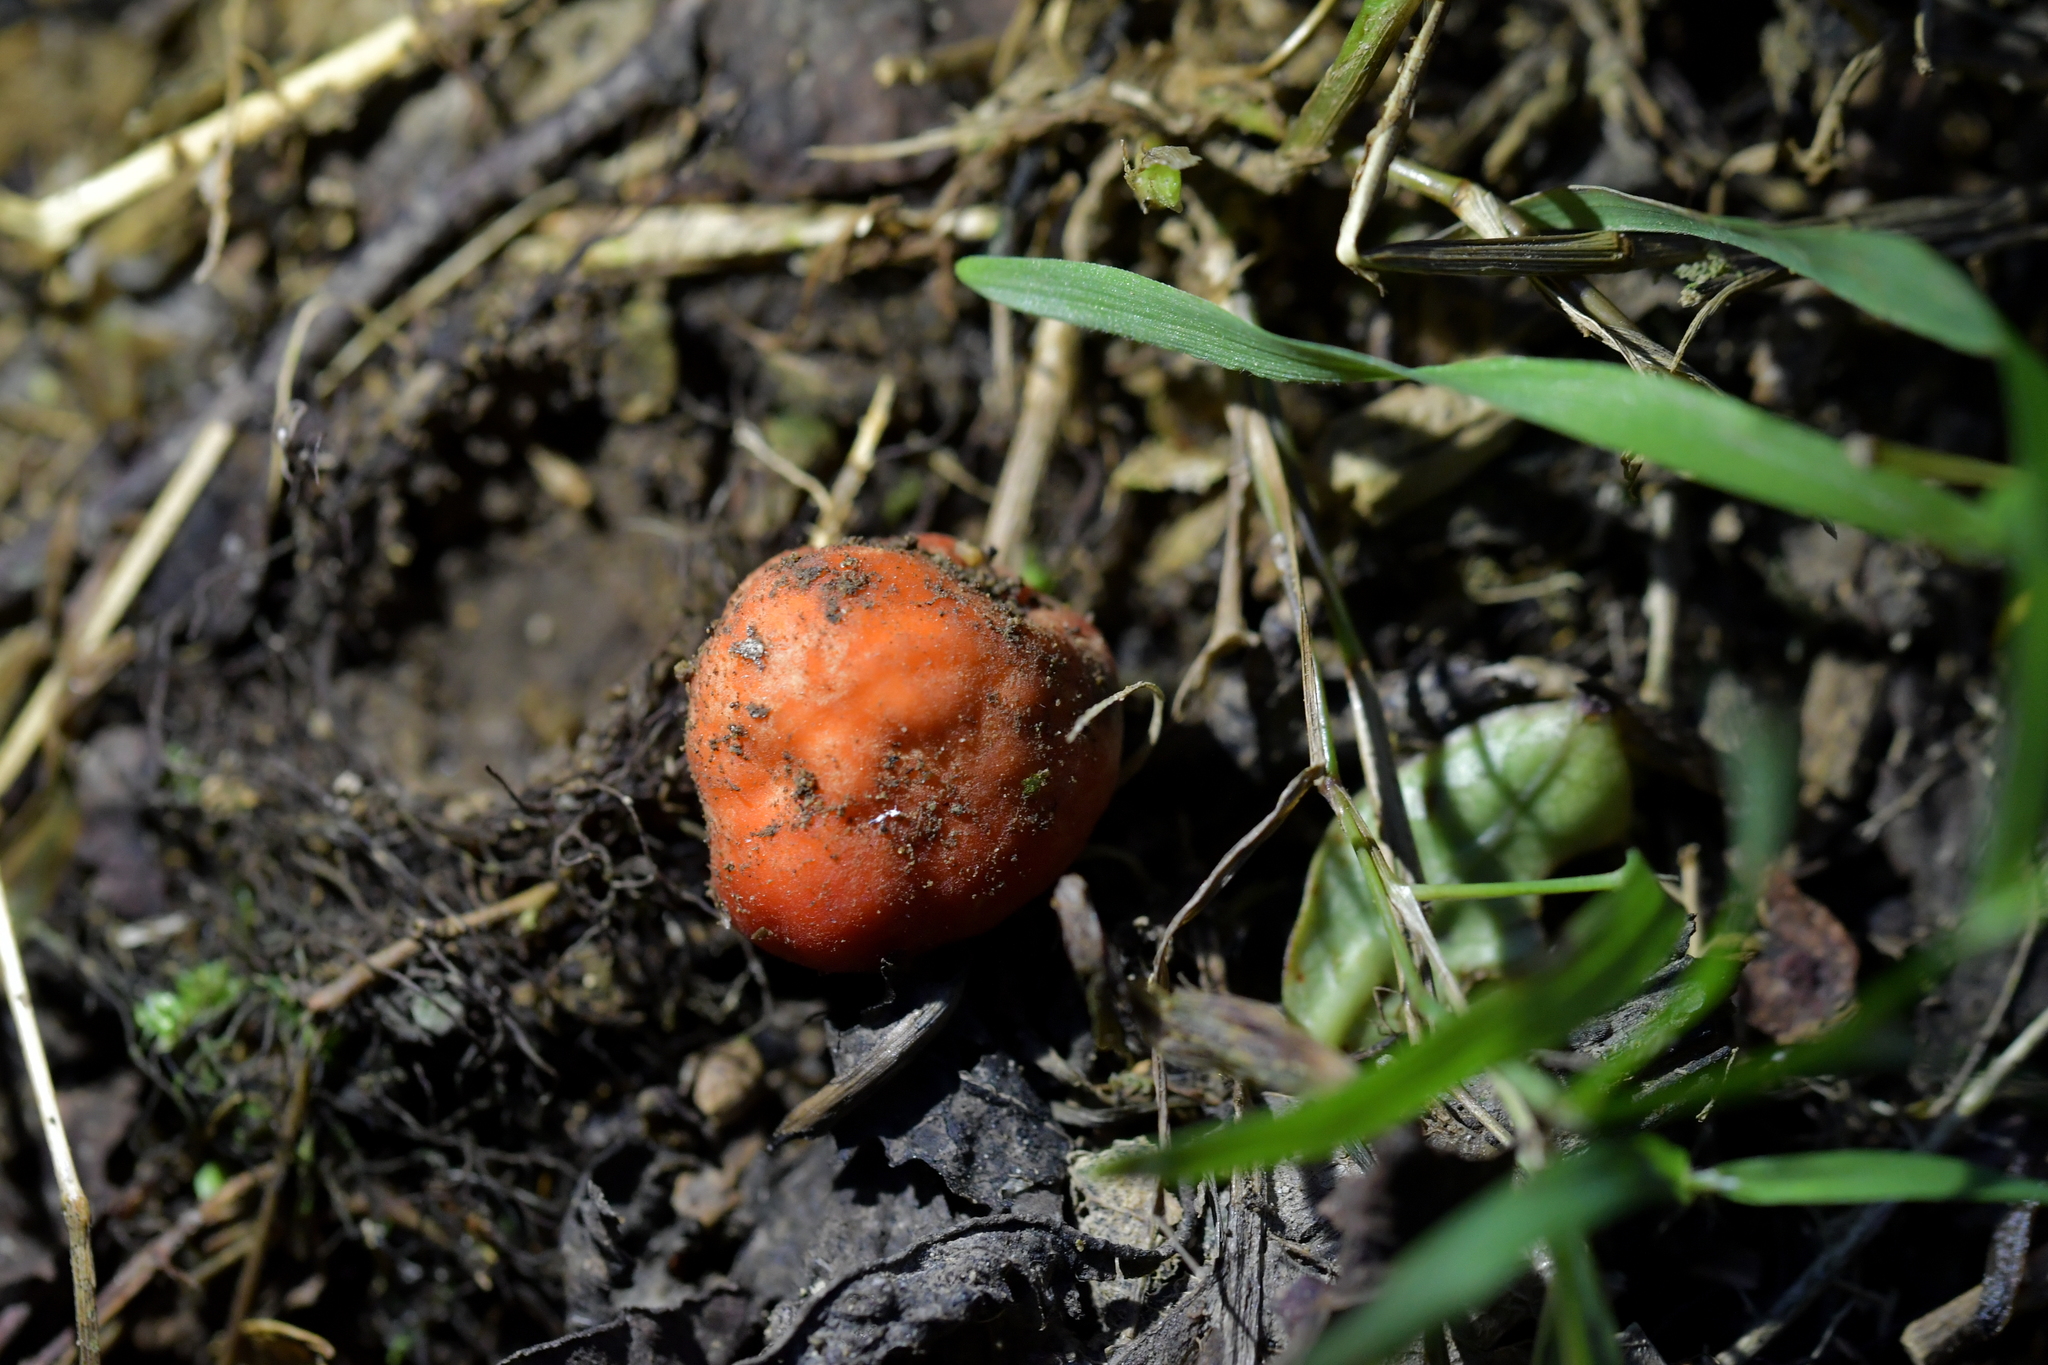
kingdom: Fungi
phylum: Ascomycota
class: Pezizomycetes
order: Pezizales
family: Pyronemataceae
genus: Paurocotylis
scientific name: Paurocotylis pila
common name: Scarlet berry truffle
